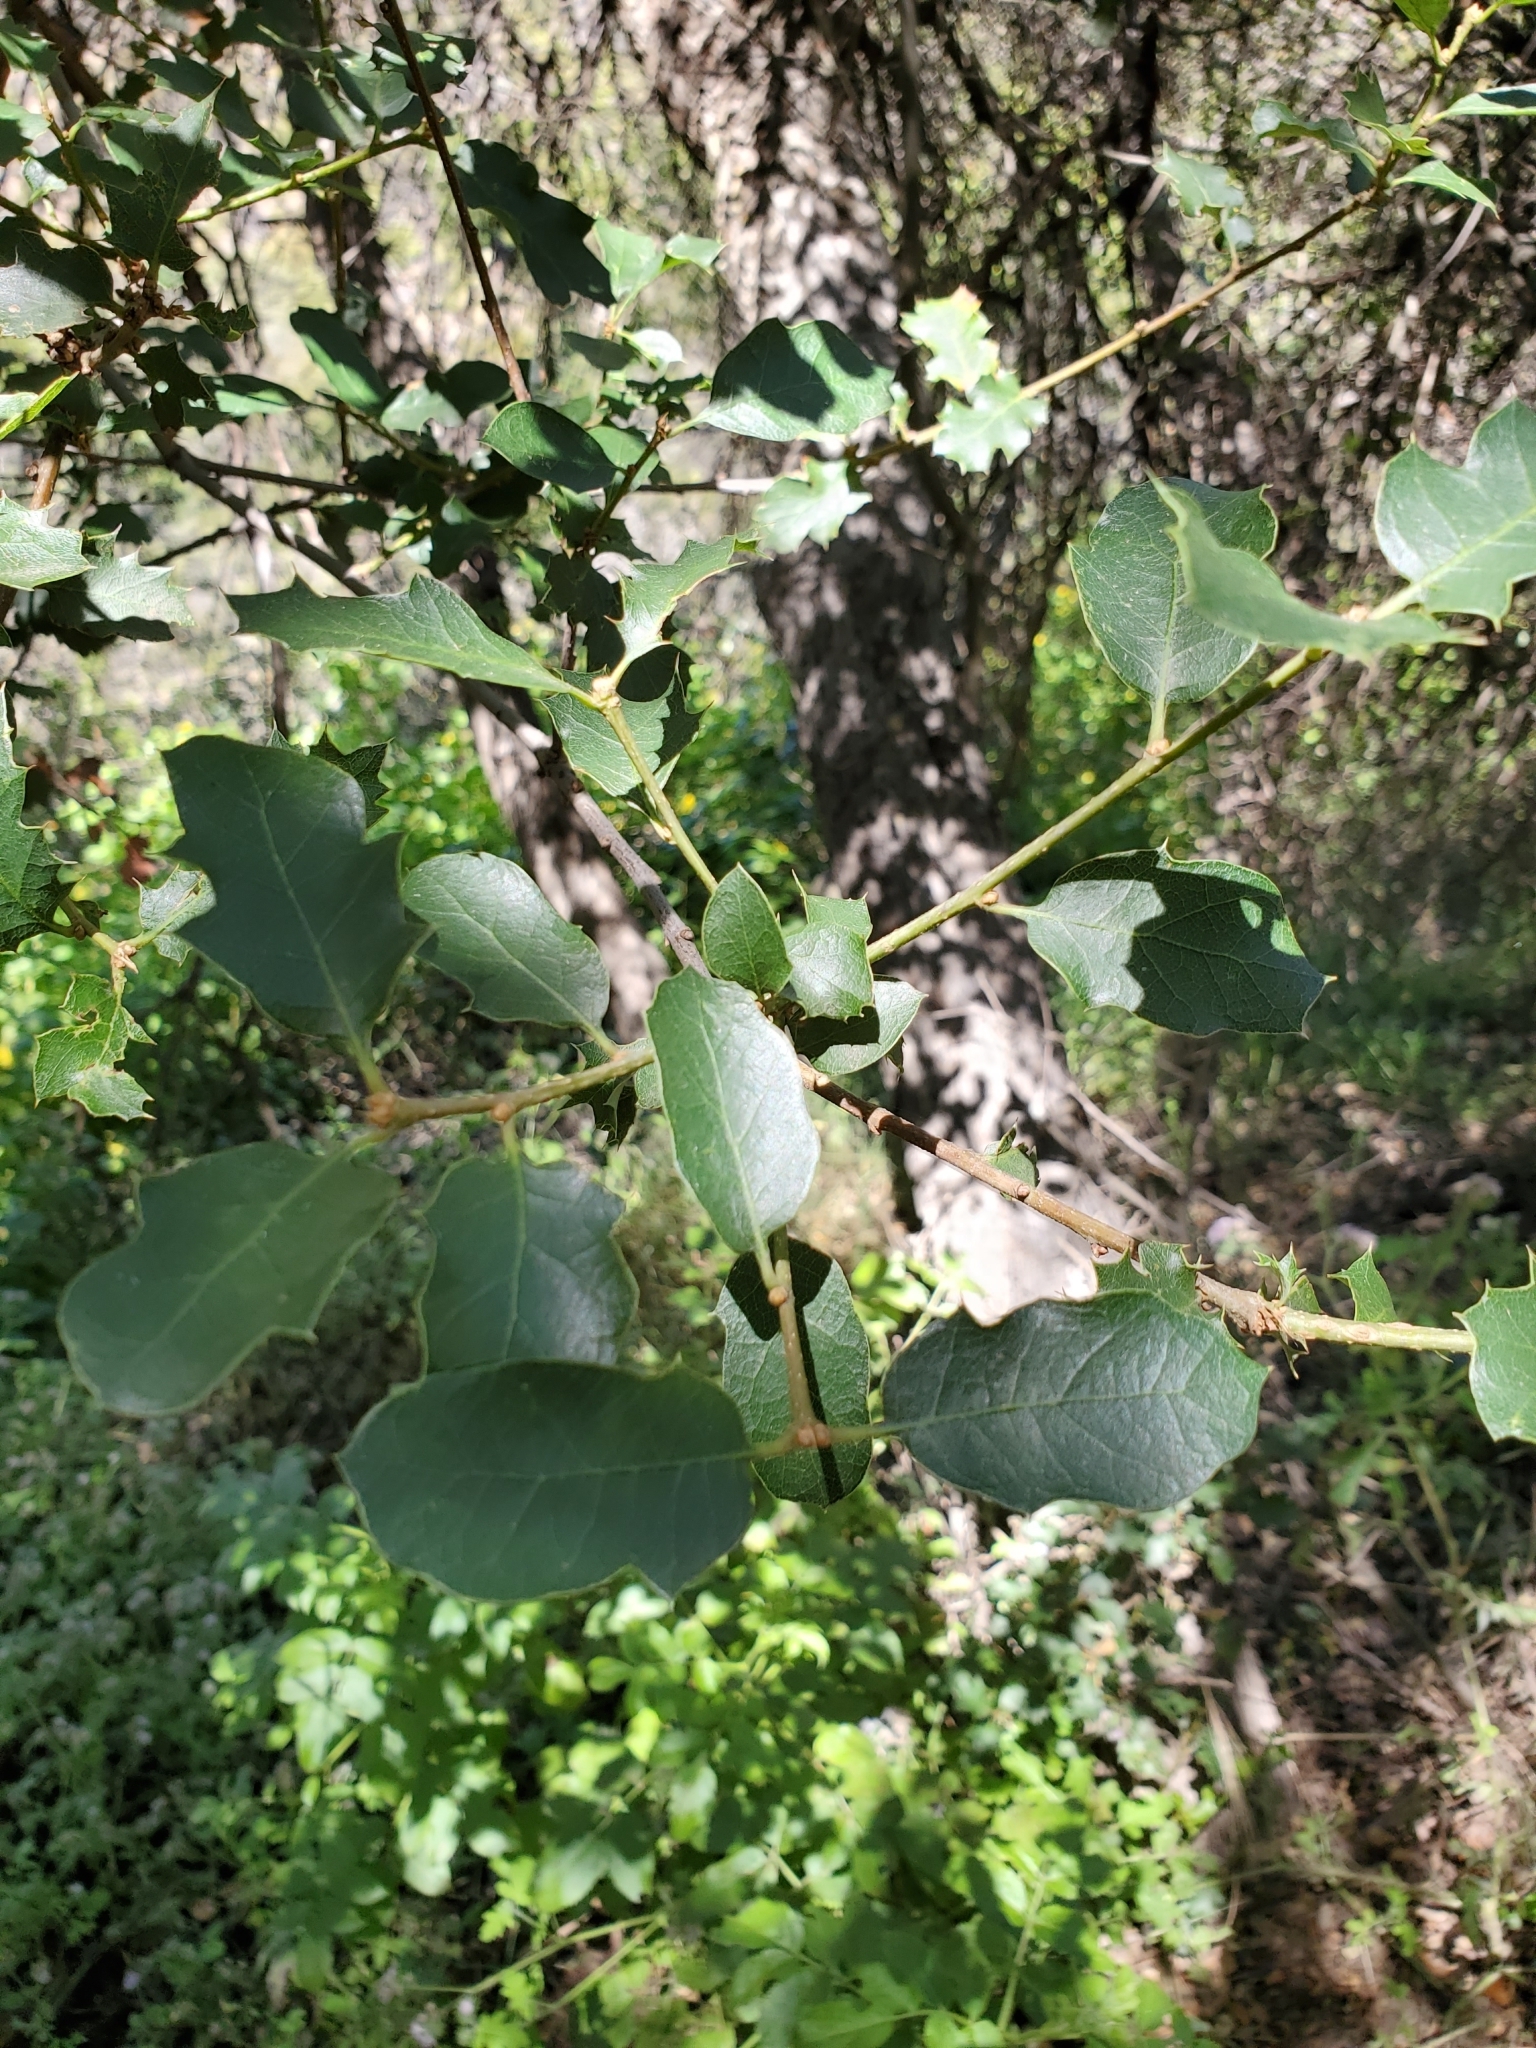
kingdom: Plantae
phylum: Tracheophyta
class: Magnoliopsida
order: Fagales
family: Fagaceae
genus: Quercus
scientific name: Quercus berberidifolia
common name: California scrub oak
